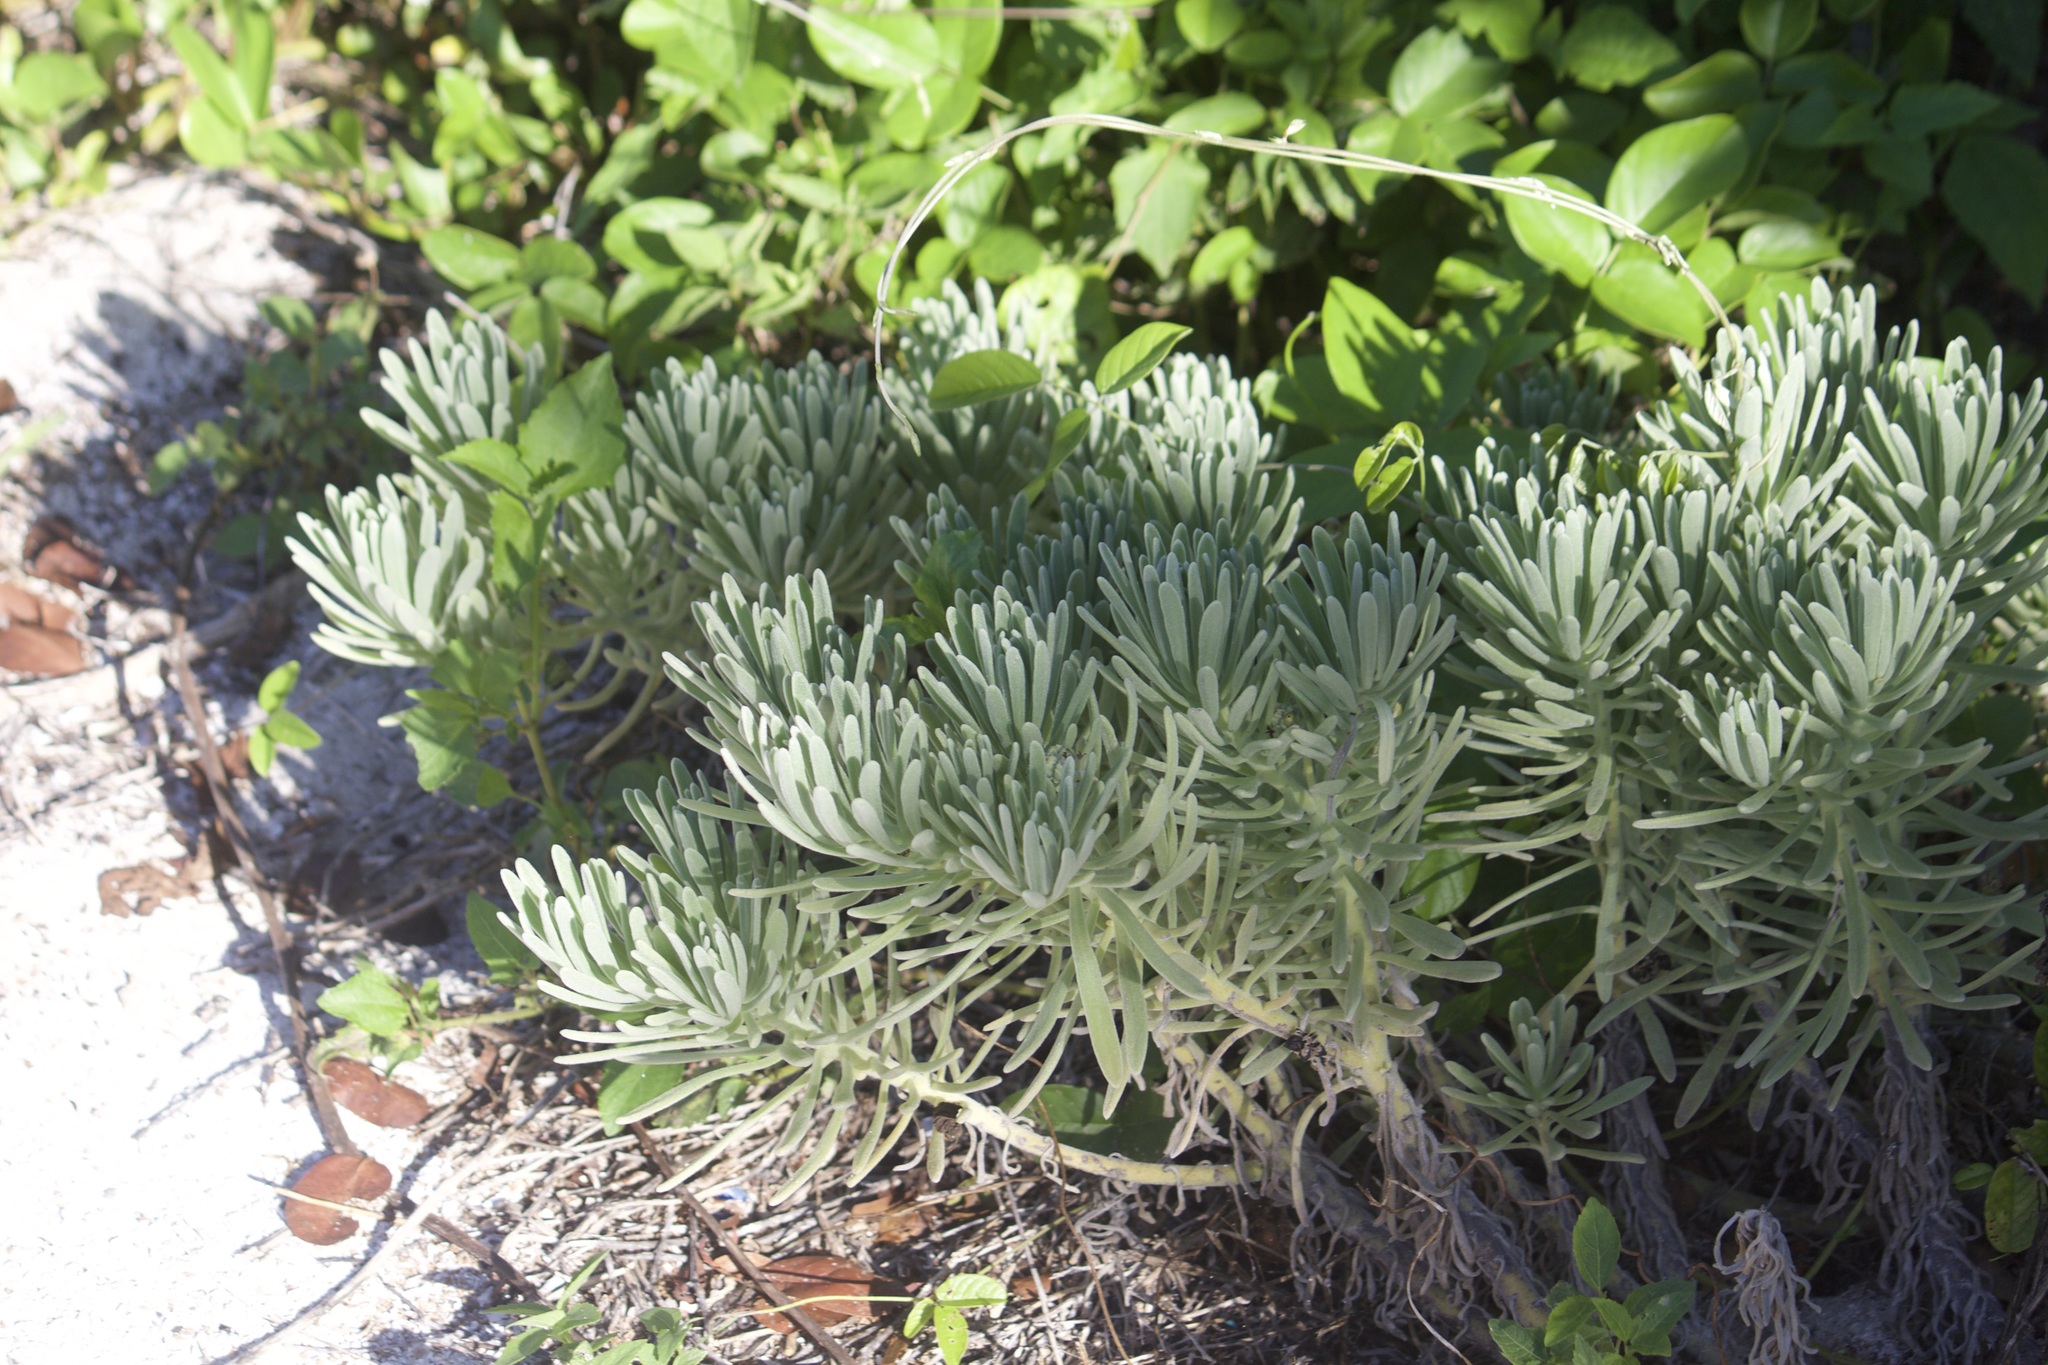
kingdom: Plantae
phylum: Tracheophyta
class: Magnoliopsida
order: Boraginales
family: Heliotropiaceae
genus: Tournefortia
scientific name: Tournefortia gnaphalodes
